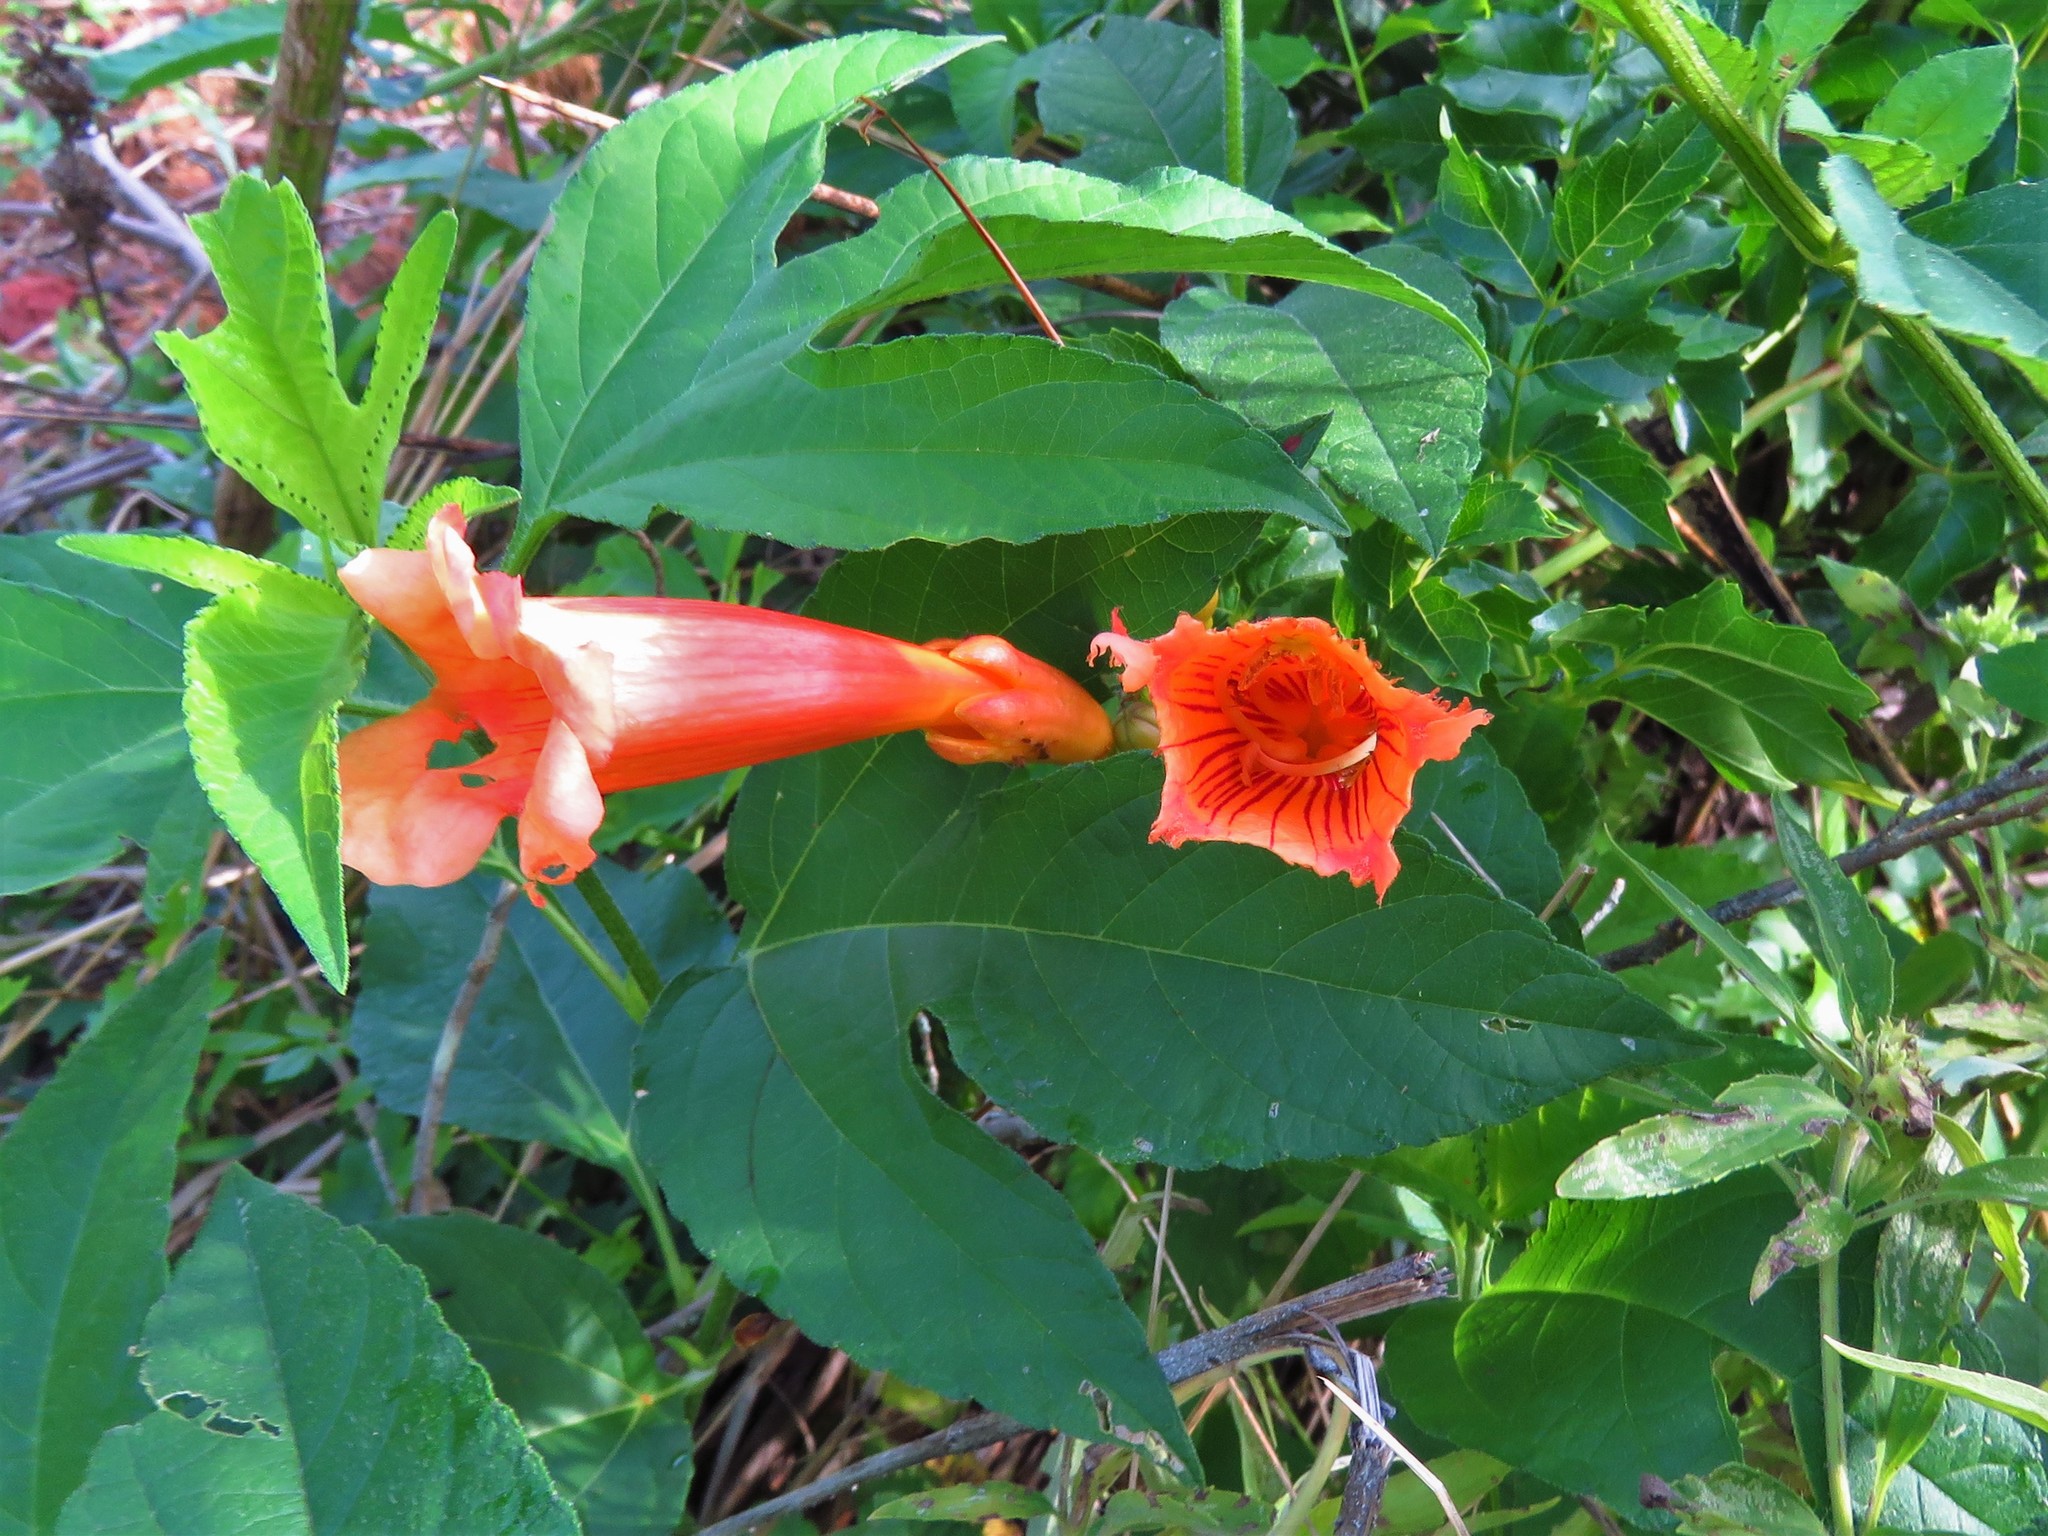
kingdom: Plantae
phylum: Tracheophyta
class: Magnoliopsida
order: Lamiales
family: Bignoniaceae
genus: Campsis
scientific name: Campsis radicans
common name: Trumpet-creeper
